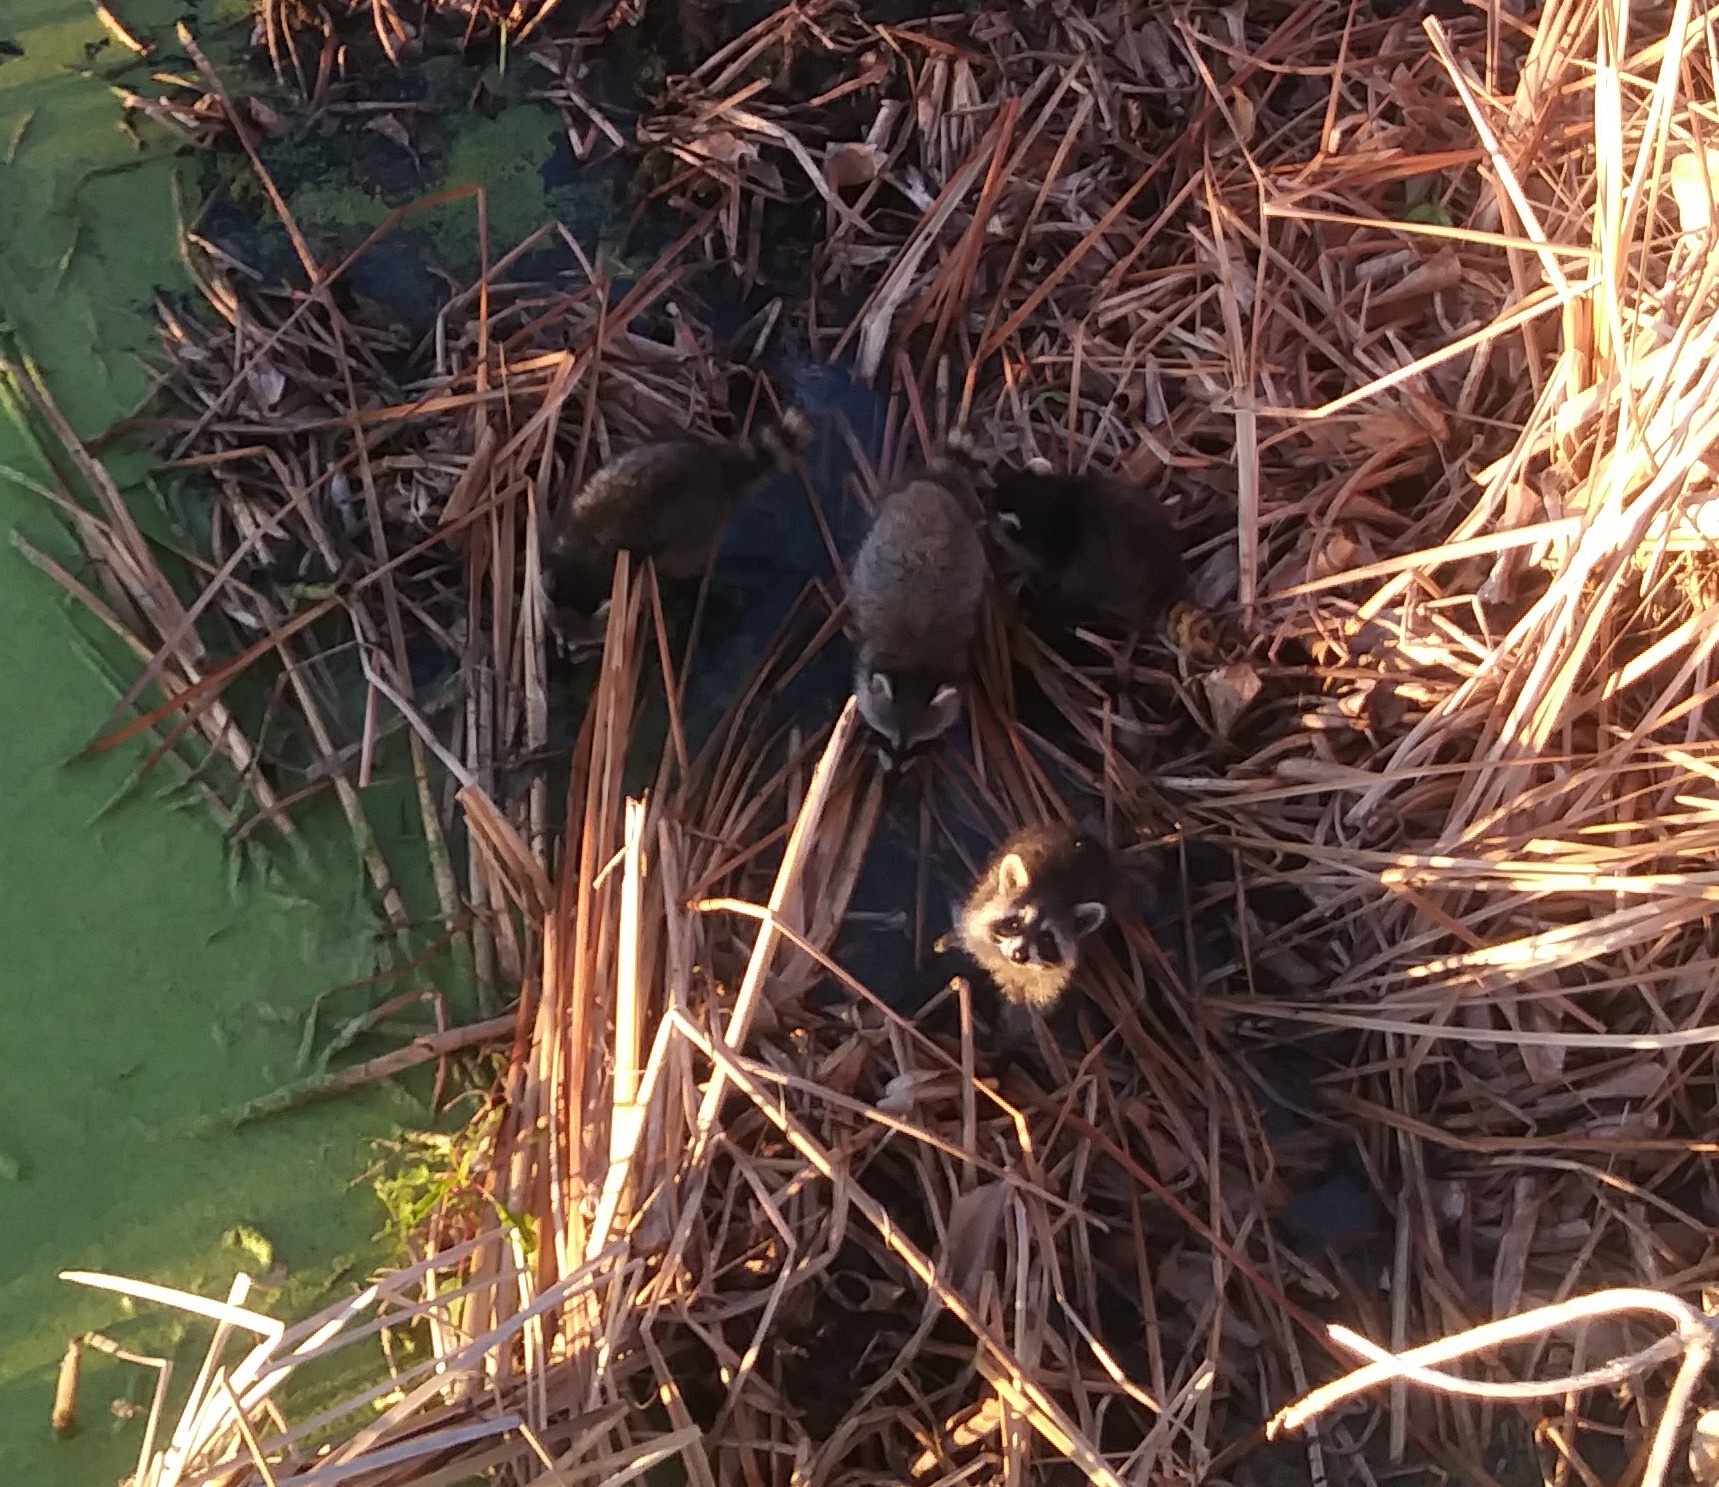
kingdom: Animalia
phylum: Chordata
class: Mammalia
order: Carnivora
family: Procyonidae
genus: Procyon
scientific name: Procyon lotor
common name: Raccoon
